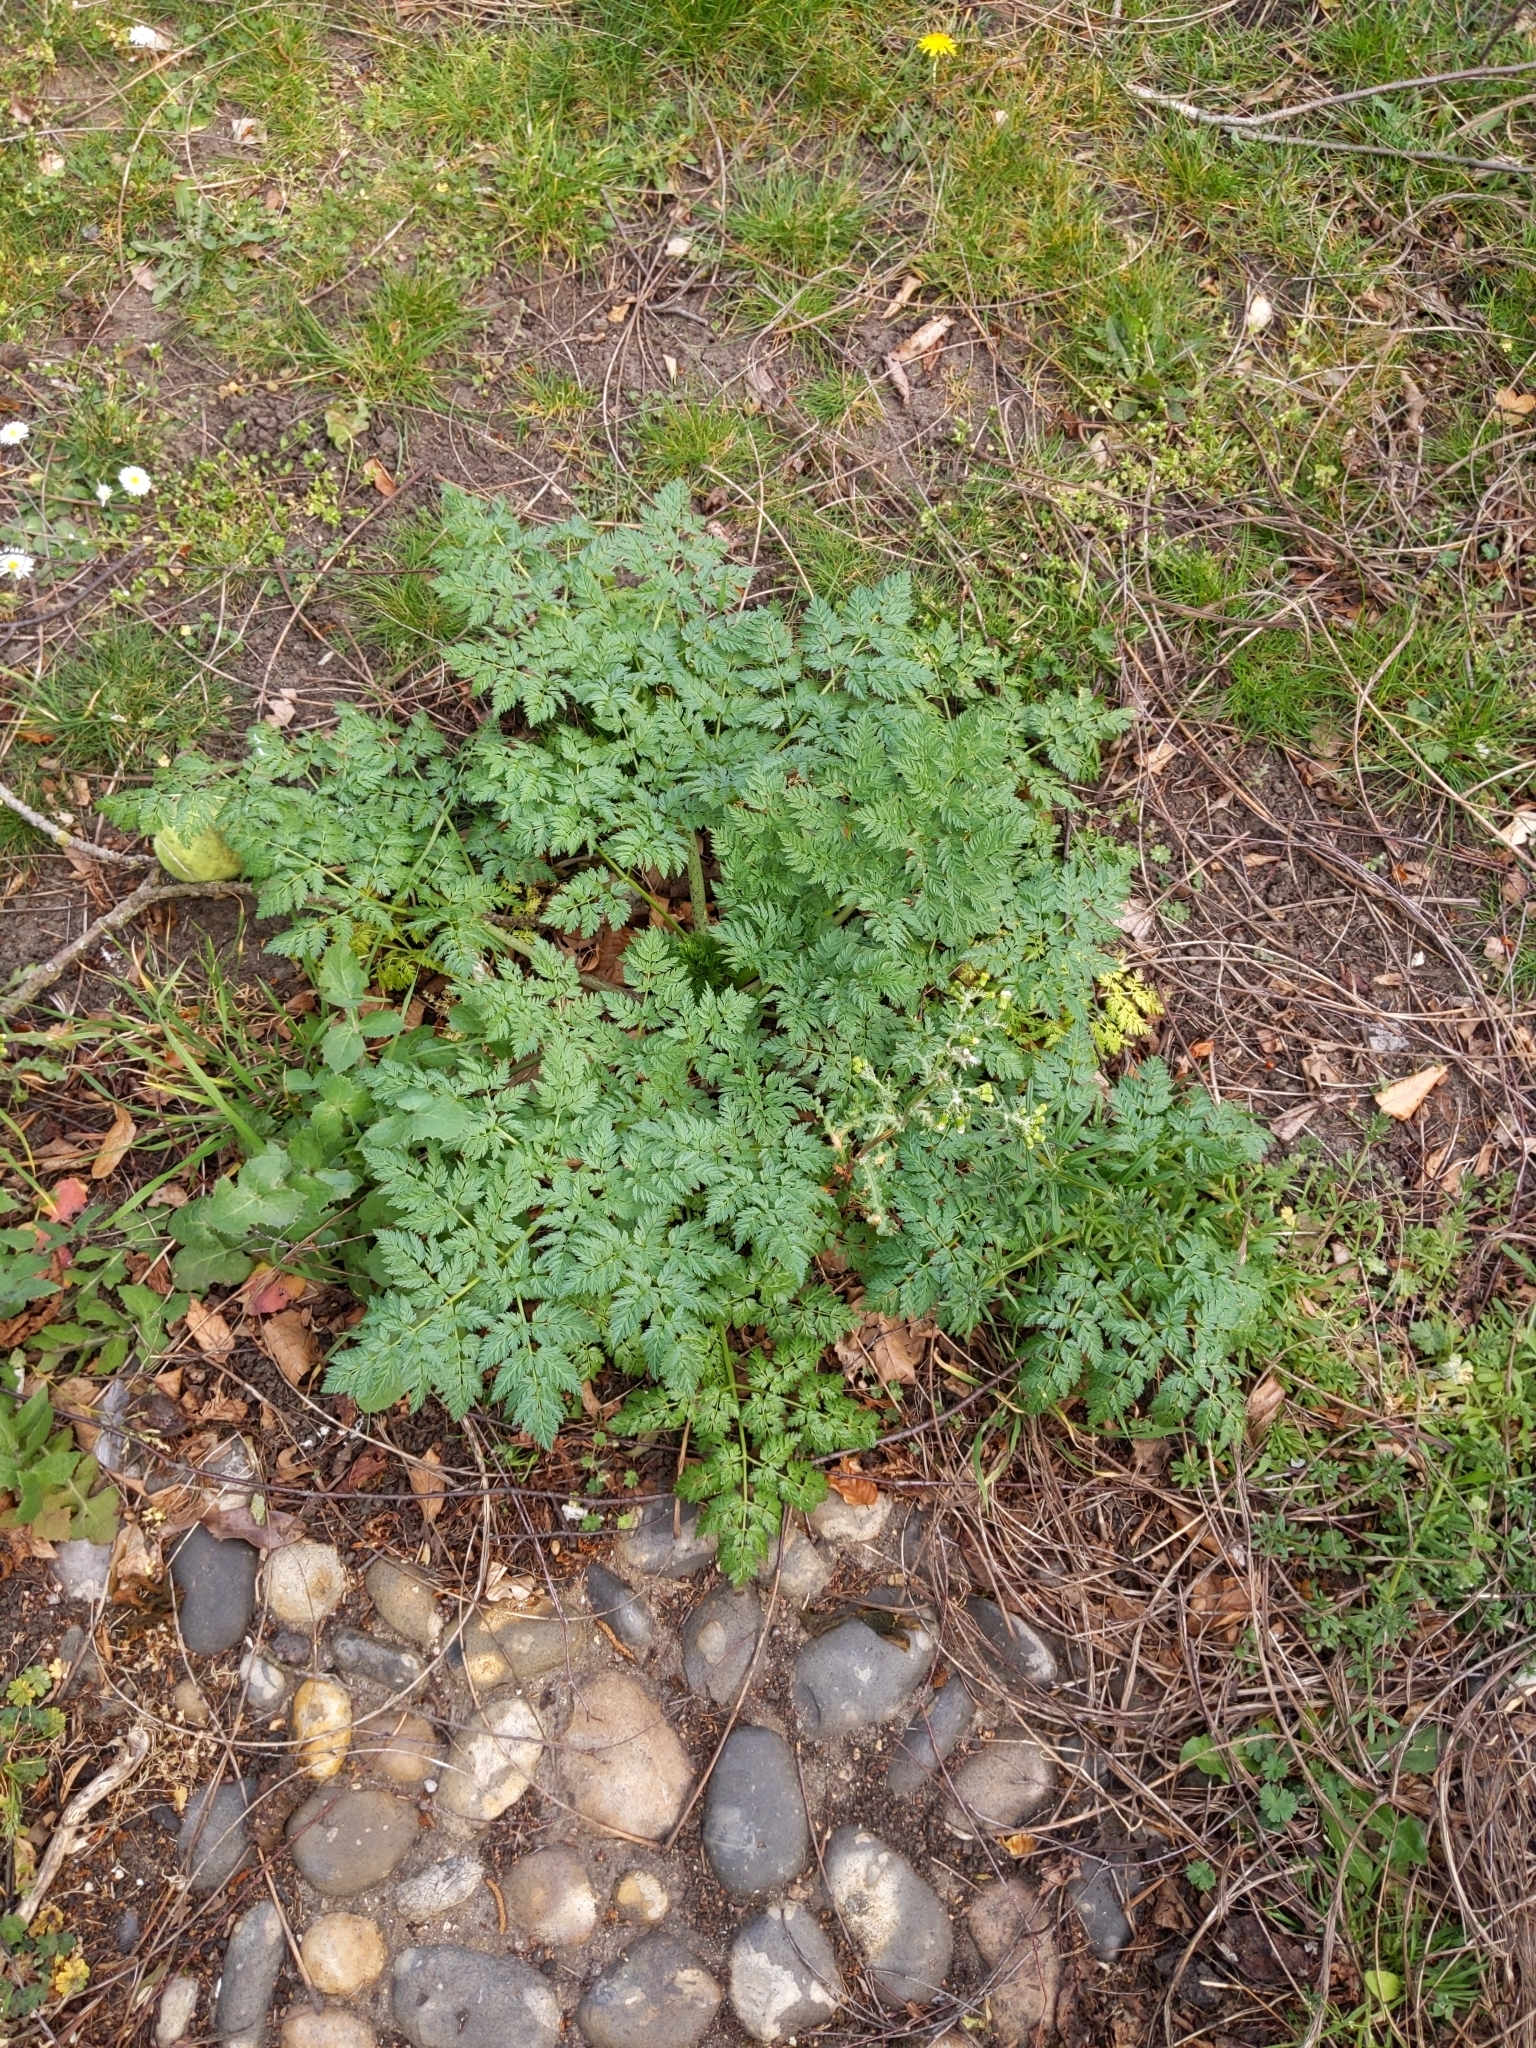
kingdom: Plantae
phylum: Tracheophyta
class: Magnoliopsida
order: Apiales
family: Apiaceae
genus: Anthriscus
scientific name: Anthriscus sylvestris
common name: Cow parsley
